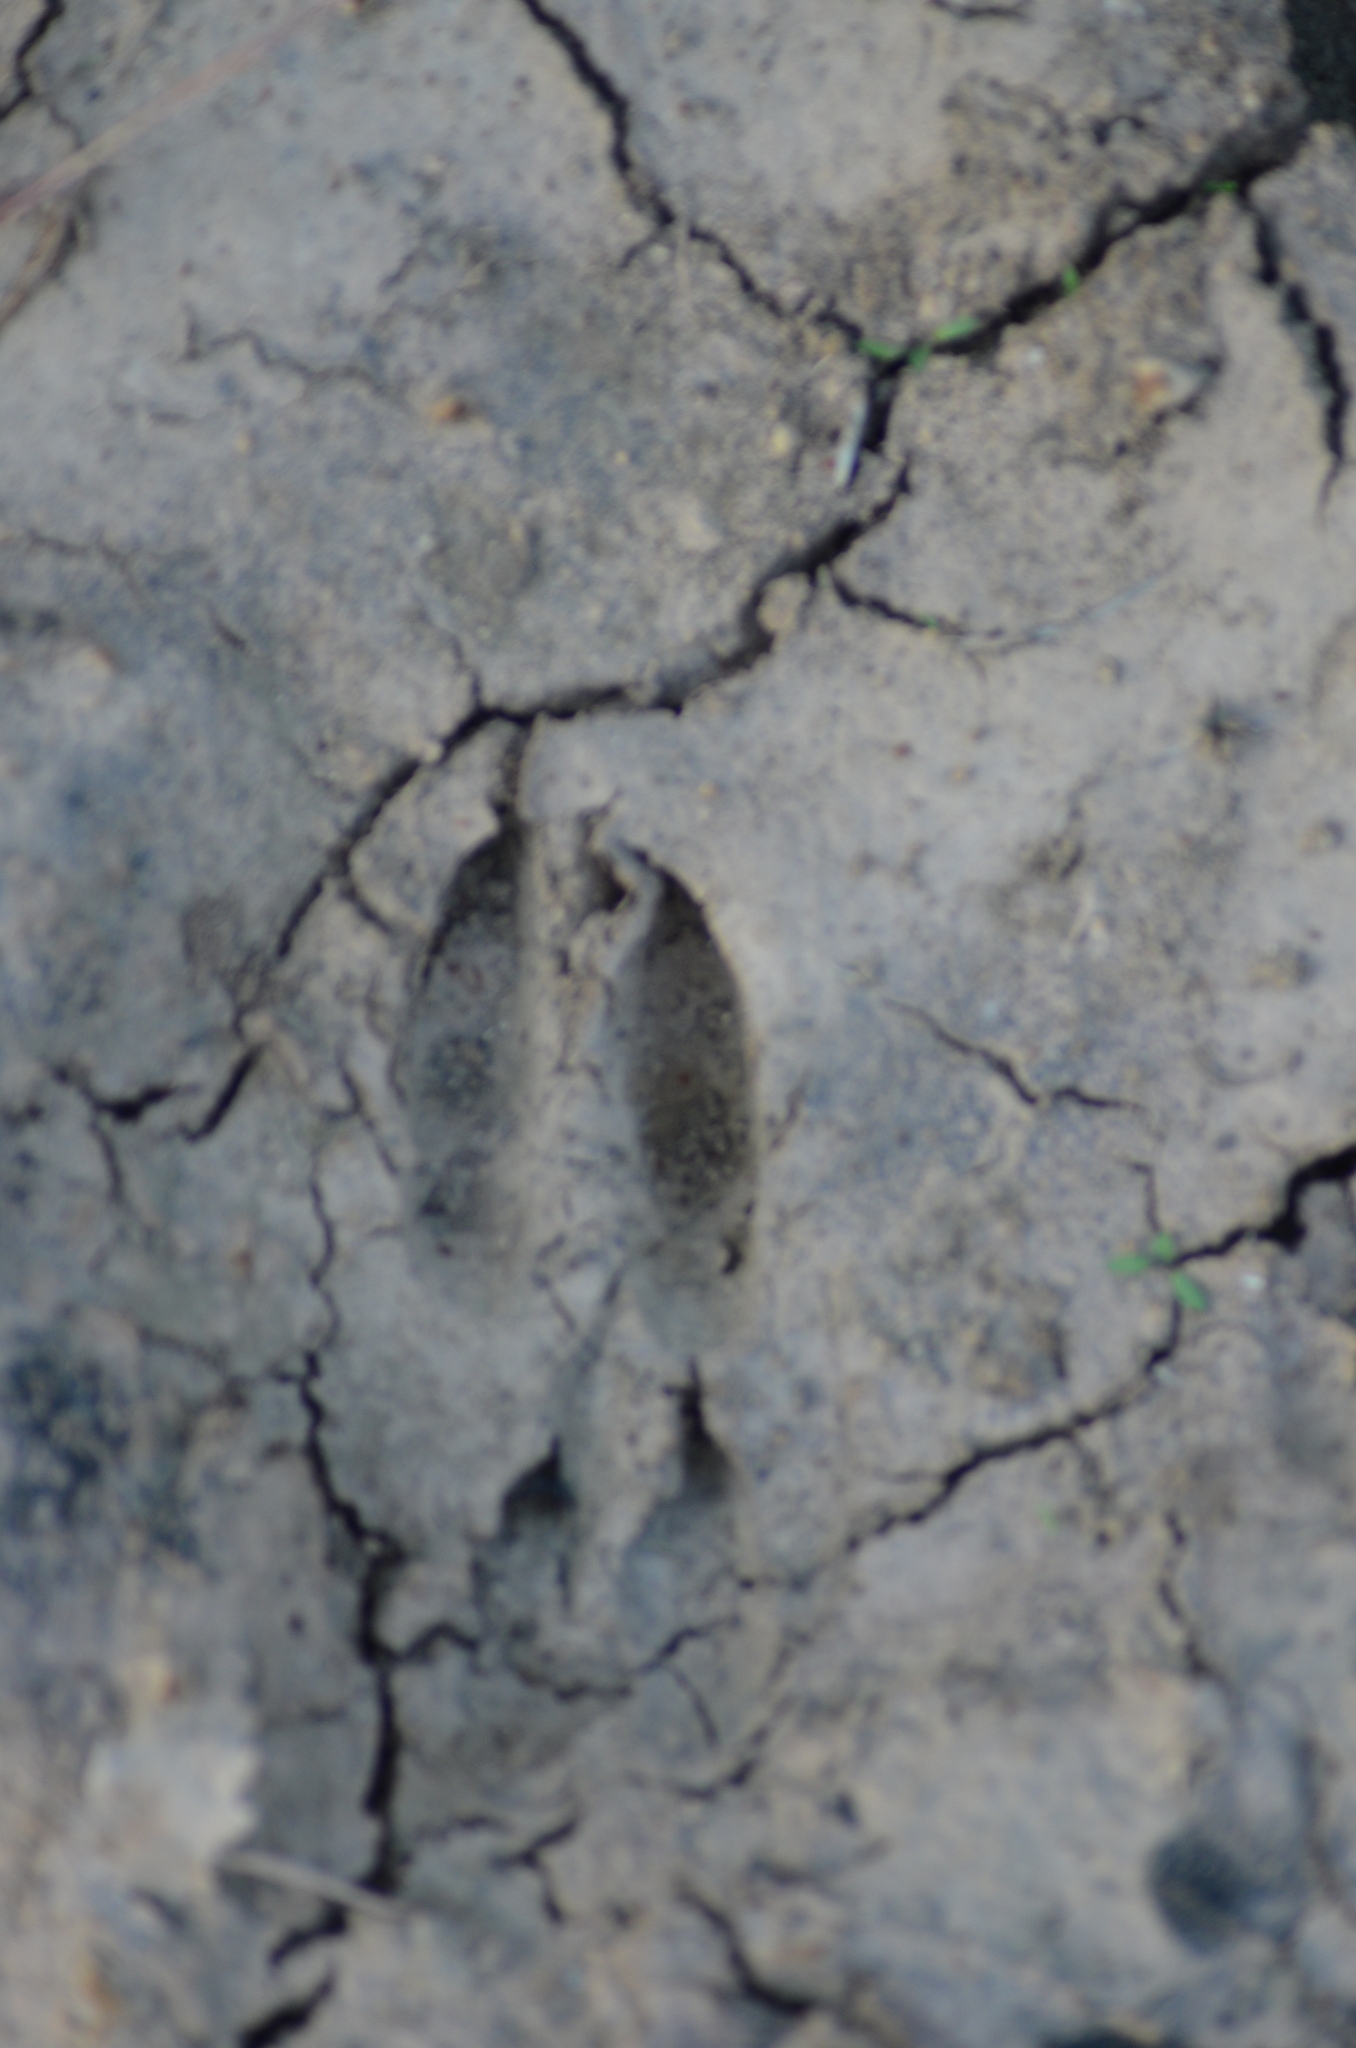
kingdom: Animalia
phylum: Chordata
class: Mammalia
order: Artiodactyla
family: Cervidae
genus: Capreolus
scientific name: Capreolus capreolus
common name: Western roe deer
